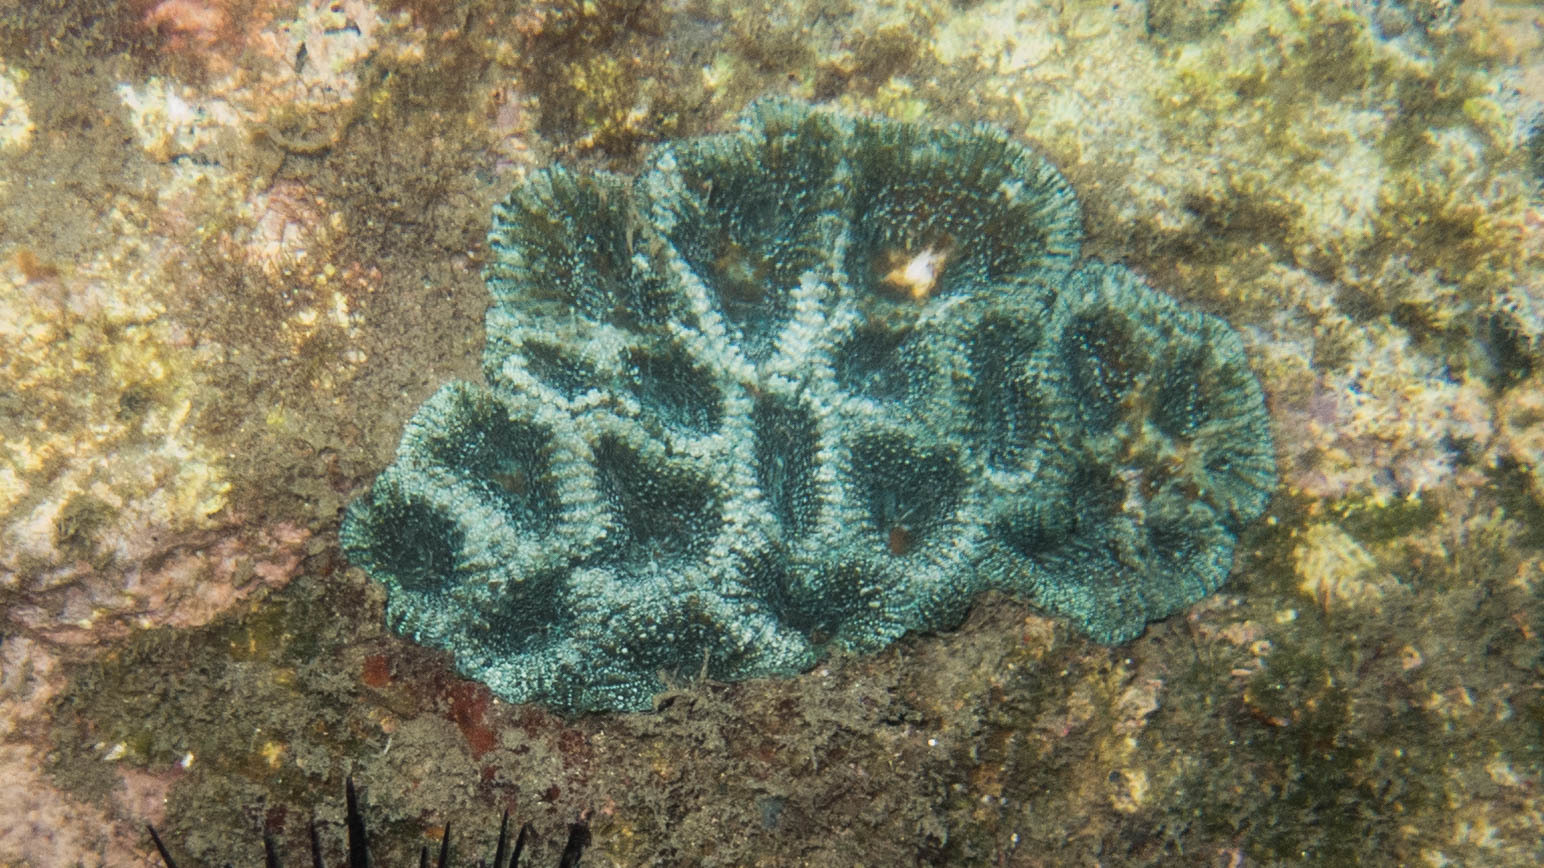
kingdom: Animalia
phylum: Cnidaria
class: Anthozoa
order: Scleractinia
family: Faviidae
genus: Mussismilia
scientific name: Mussismilia hispida
